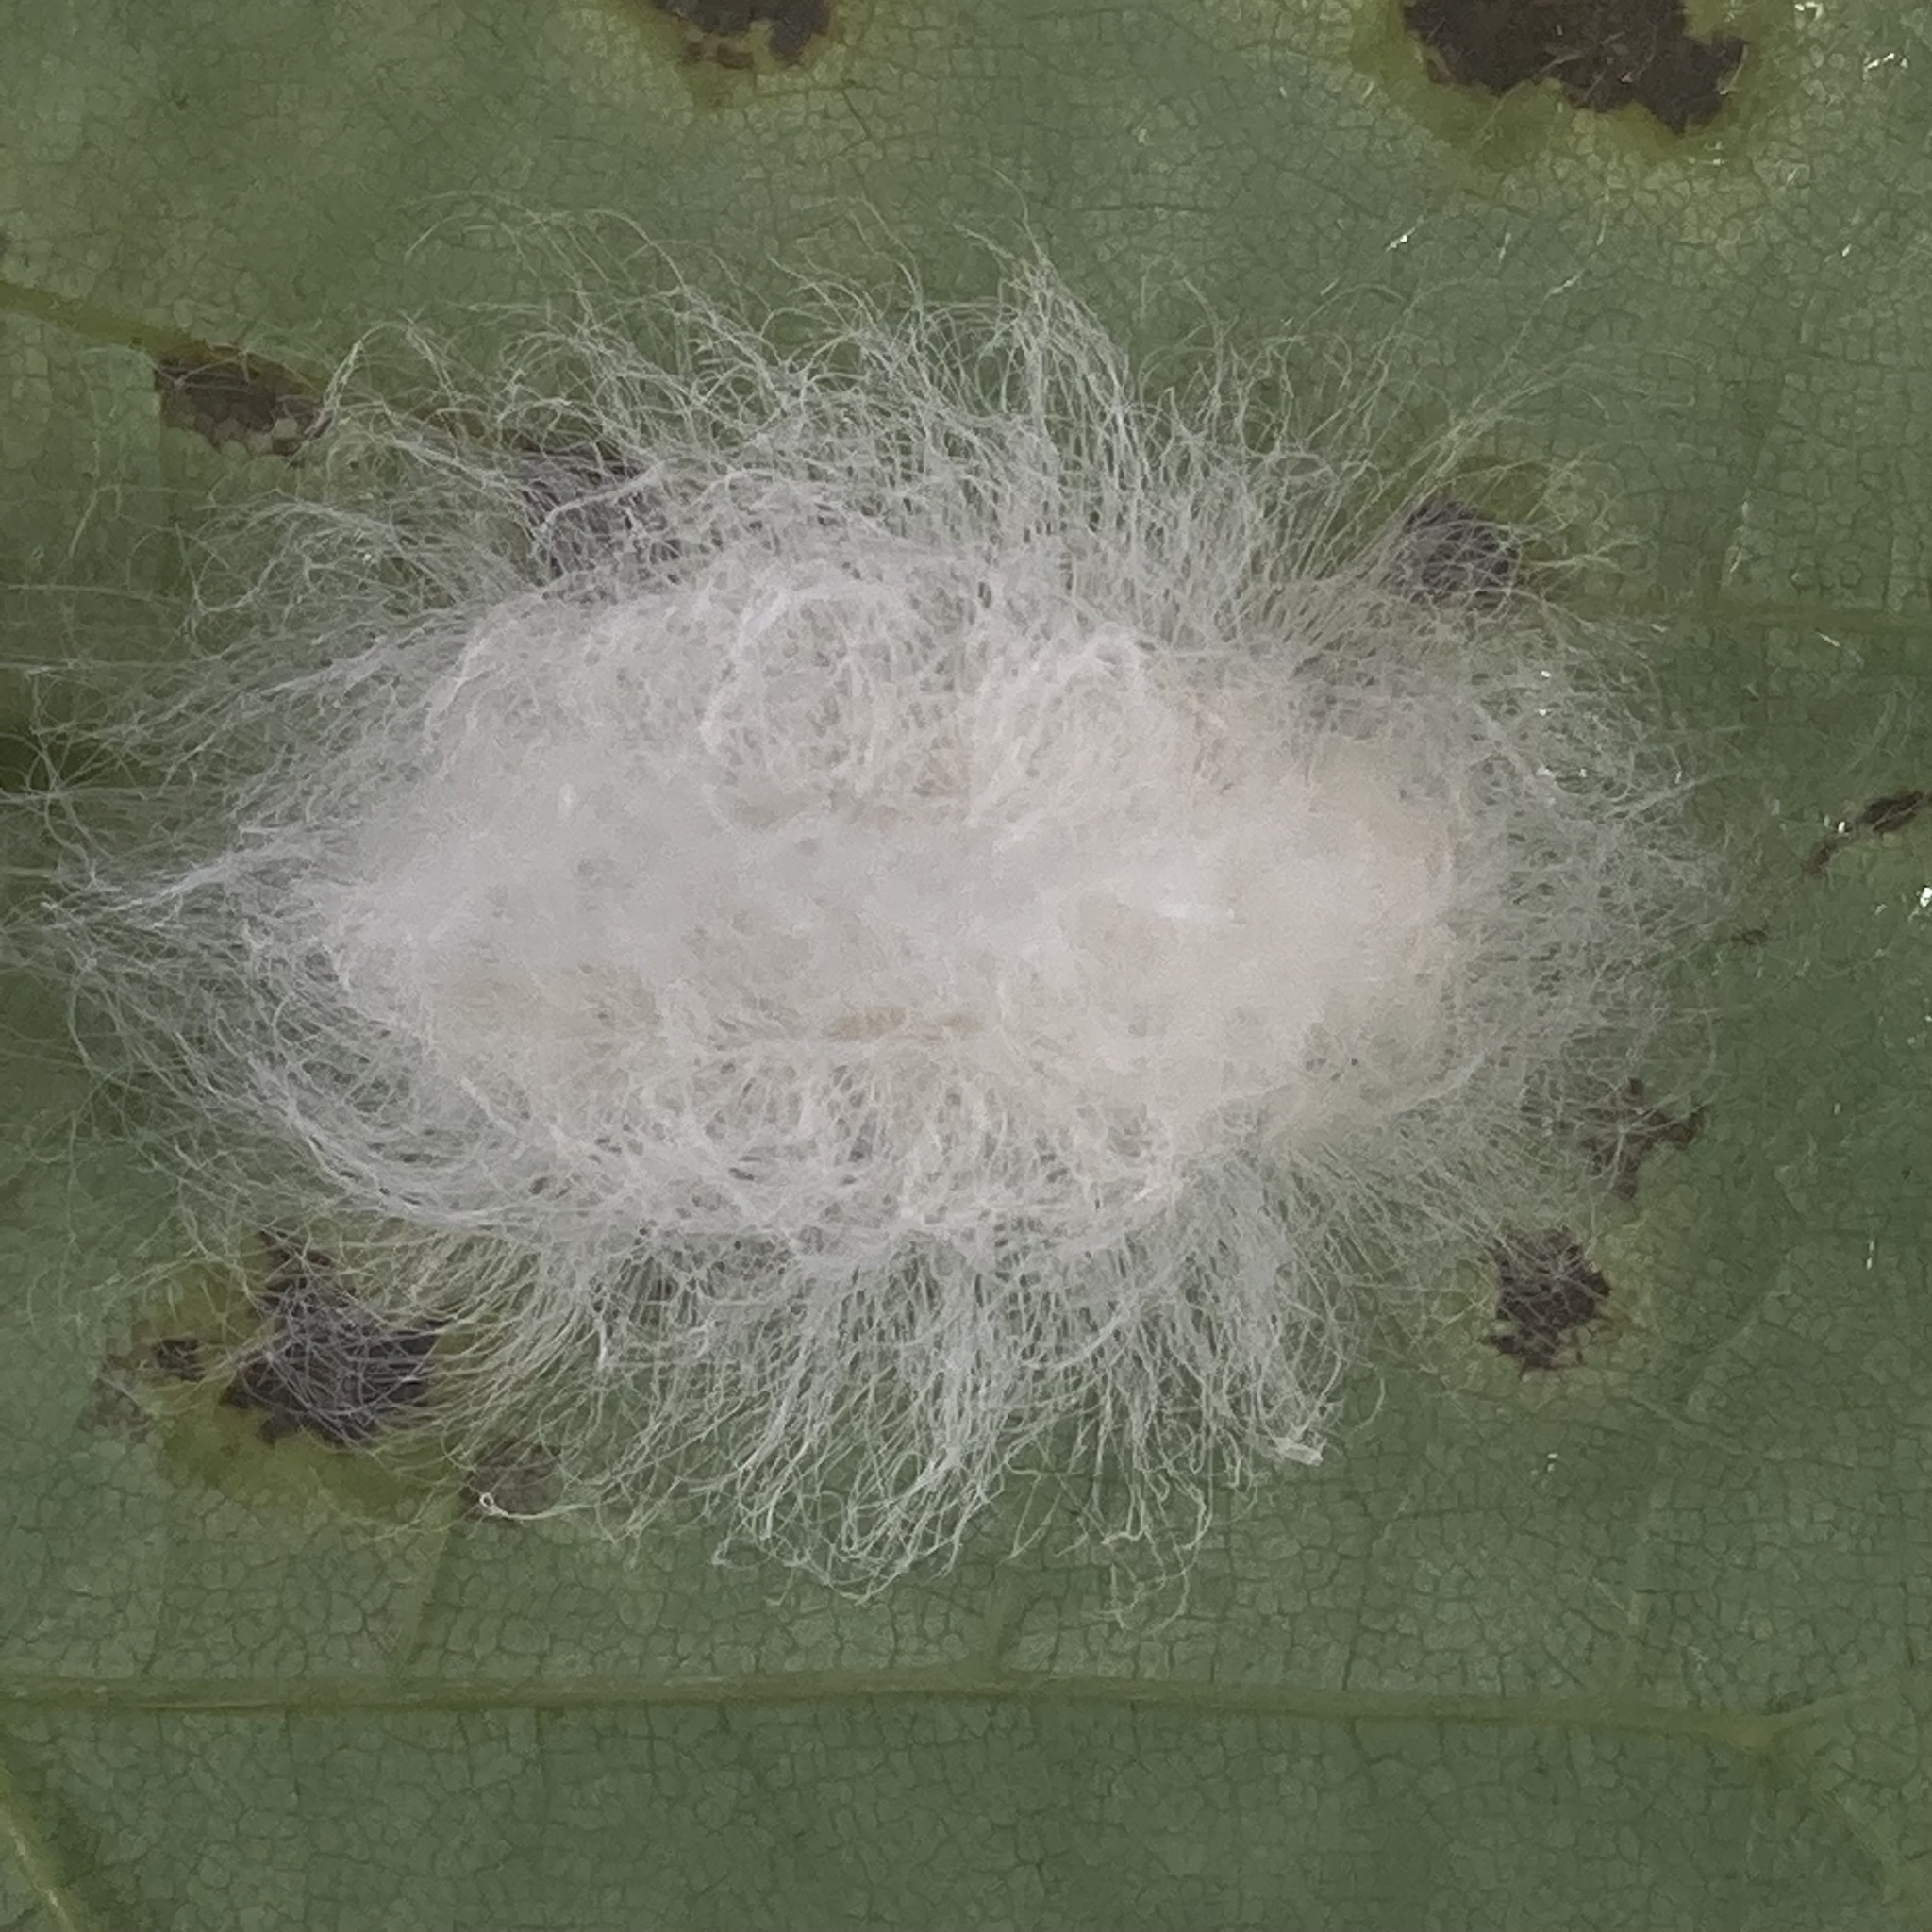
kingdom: Animalia
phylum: Arthropoda
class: Insecta
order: Lepidoptera
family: Megalopygidae
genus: Megalopyge
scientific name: Megalopyge crispata
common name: Black-waved flannel moth
